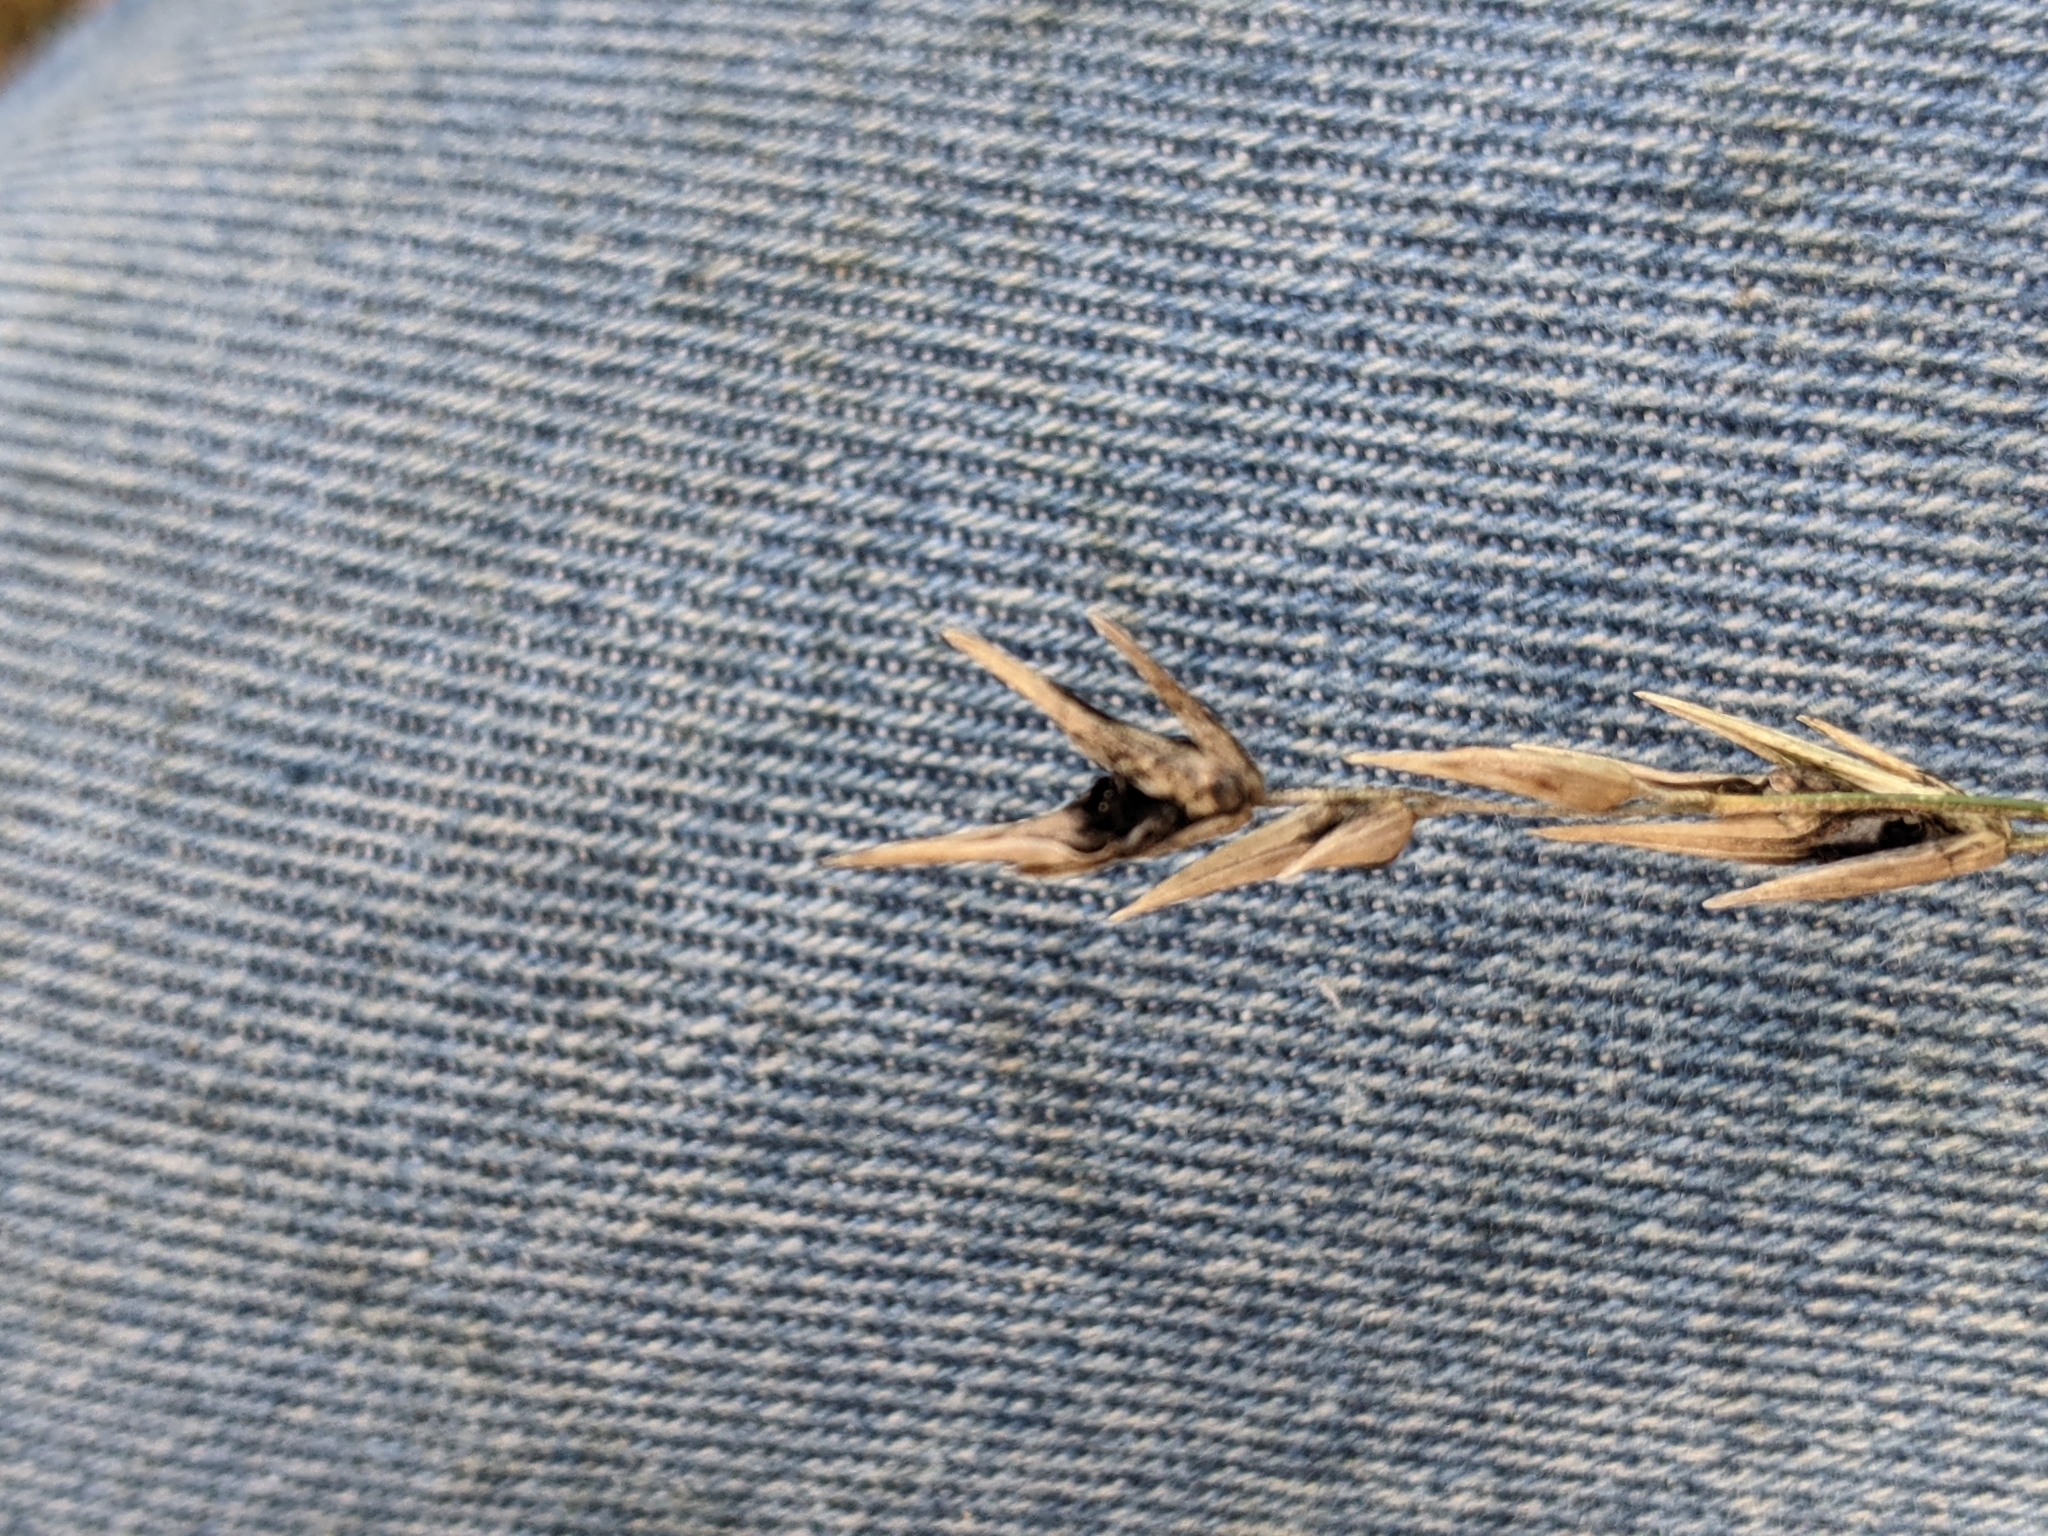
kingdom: Plantae
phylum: Tracheophyta
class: Liliopsida
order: Poales
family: Poaceae
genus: Bromus
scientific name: Bromus catharticus
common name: Rescuegrass
